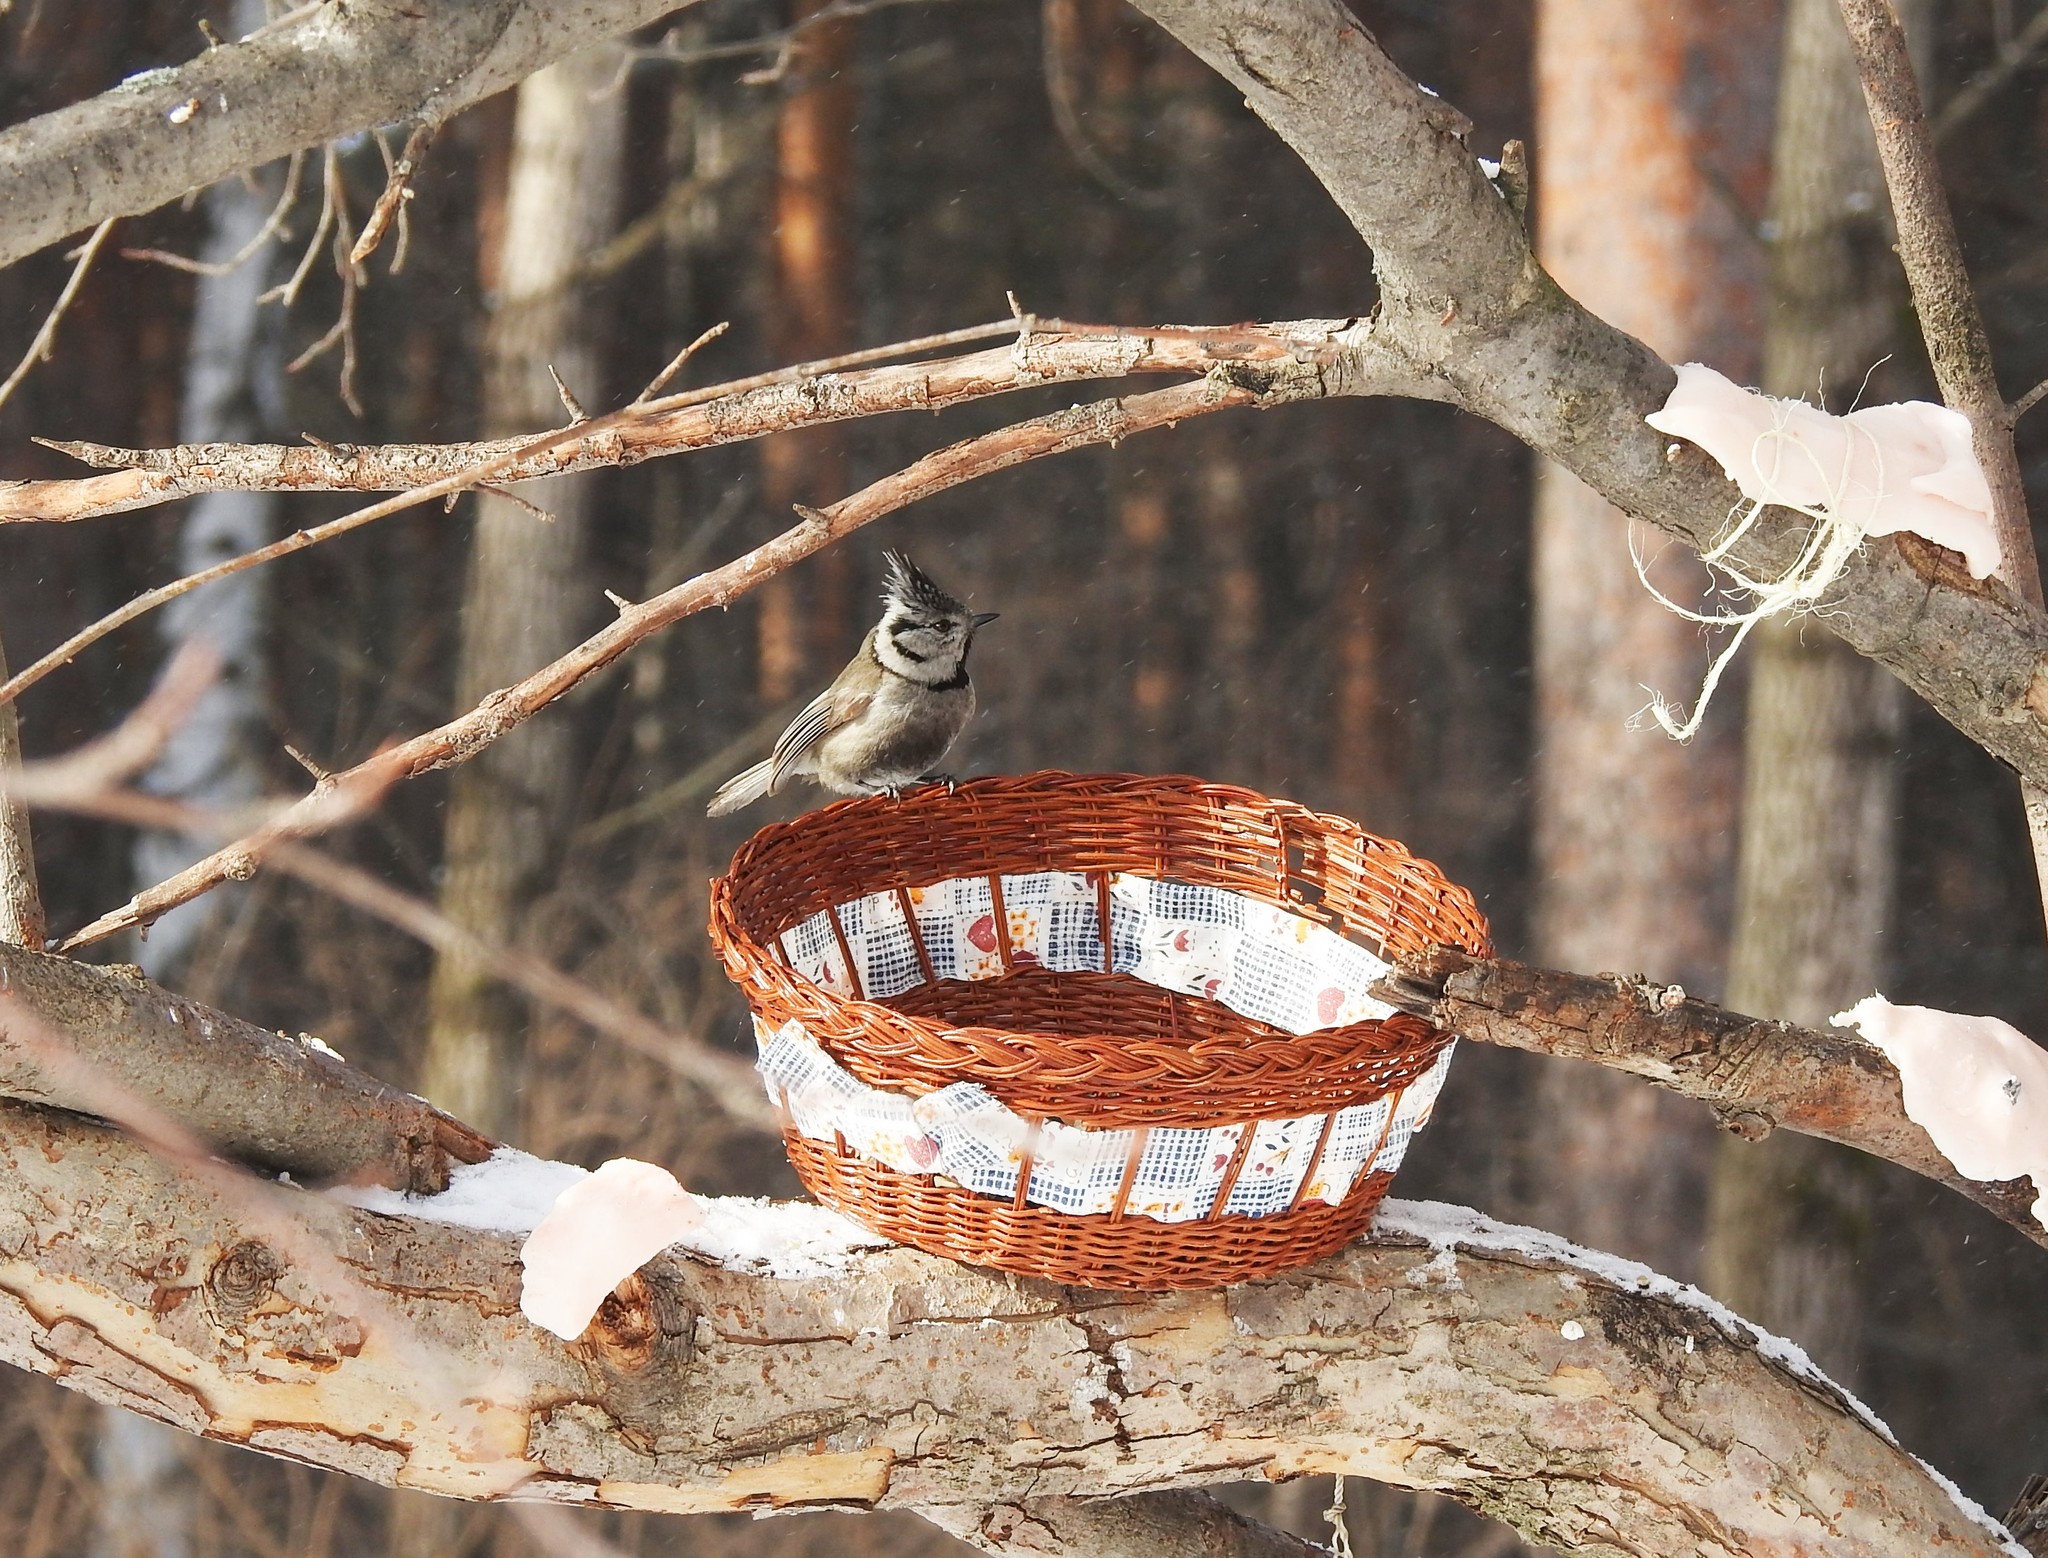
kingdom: Animalia
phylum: Chordata
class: Aves
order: Passeriformes
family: Paridae
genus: Lophophanes
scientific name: Lophophanes cristatus
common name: European crested tit
